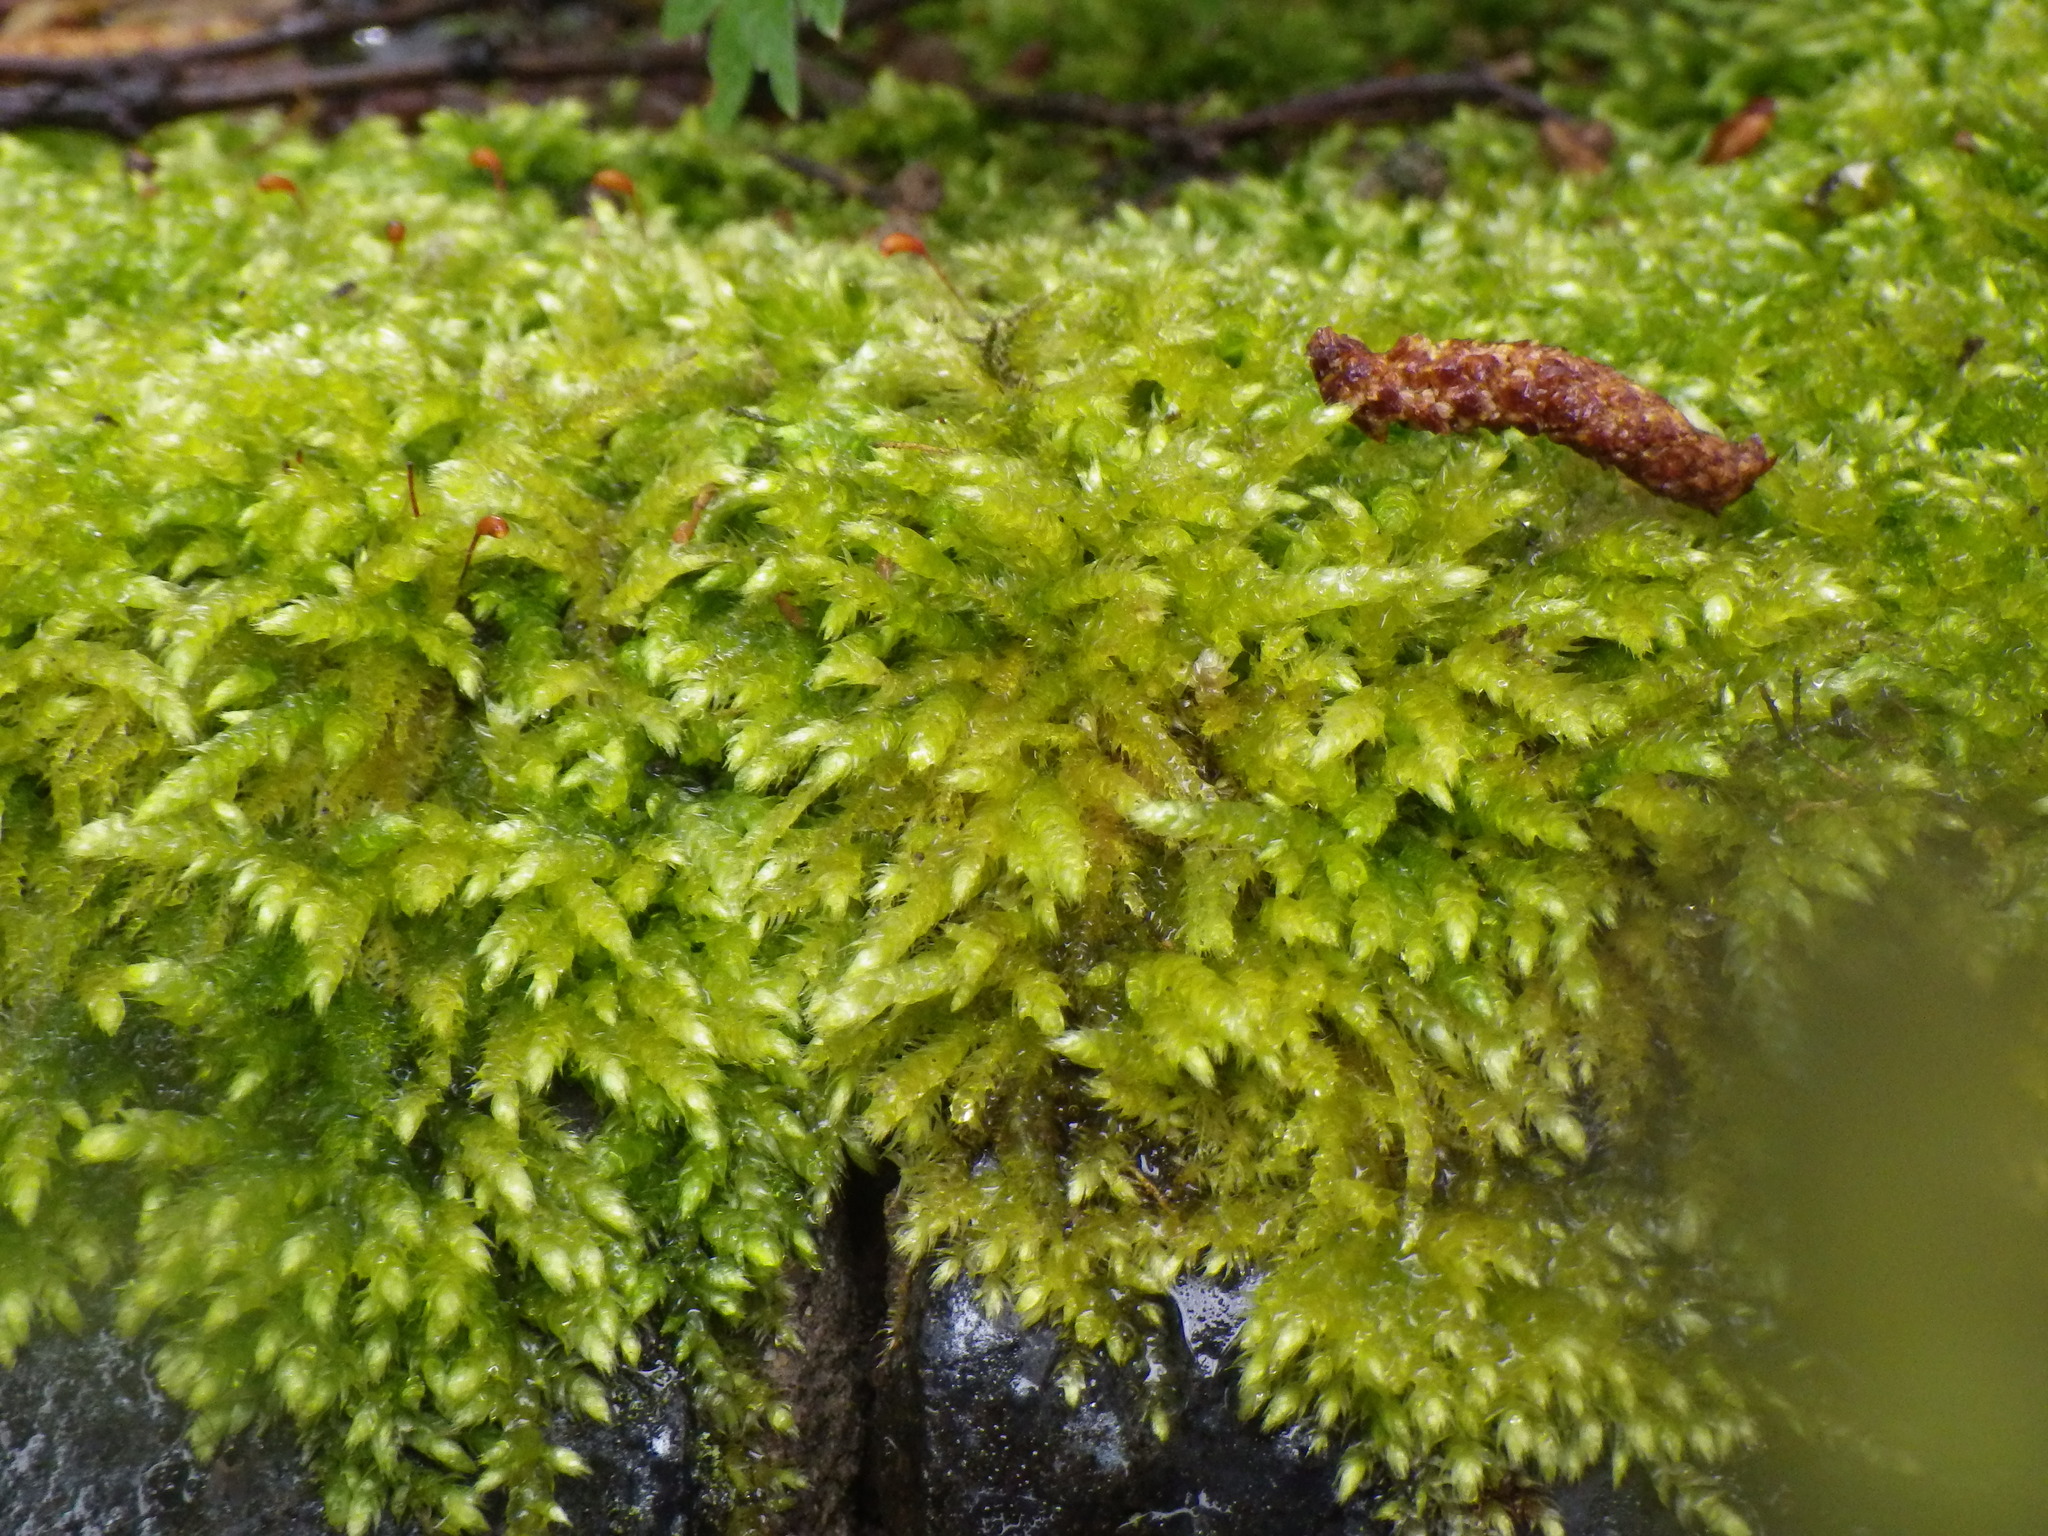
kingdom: Plantae
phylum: Bryophyta
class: Bryopsida
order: Hypnales
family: Brachytheciaceae
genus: Brachythecium
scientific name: Brachythecium rutabulum
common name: Rough-stalked feather-moss
